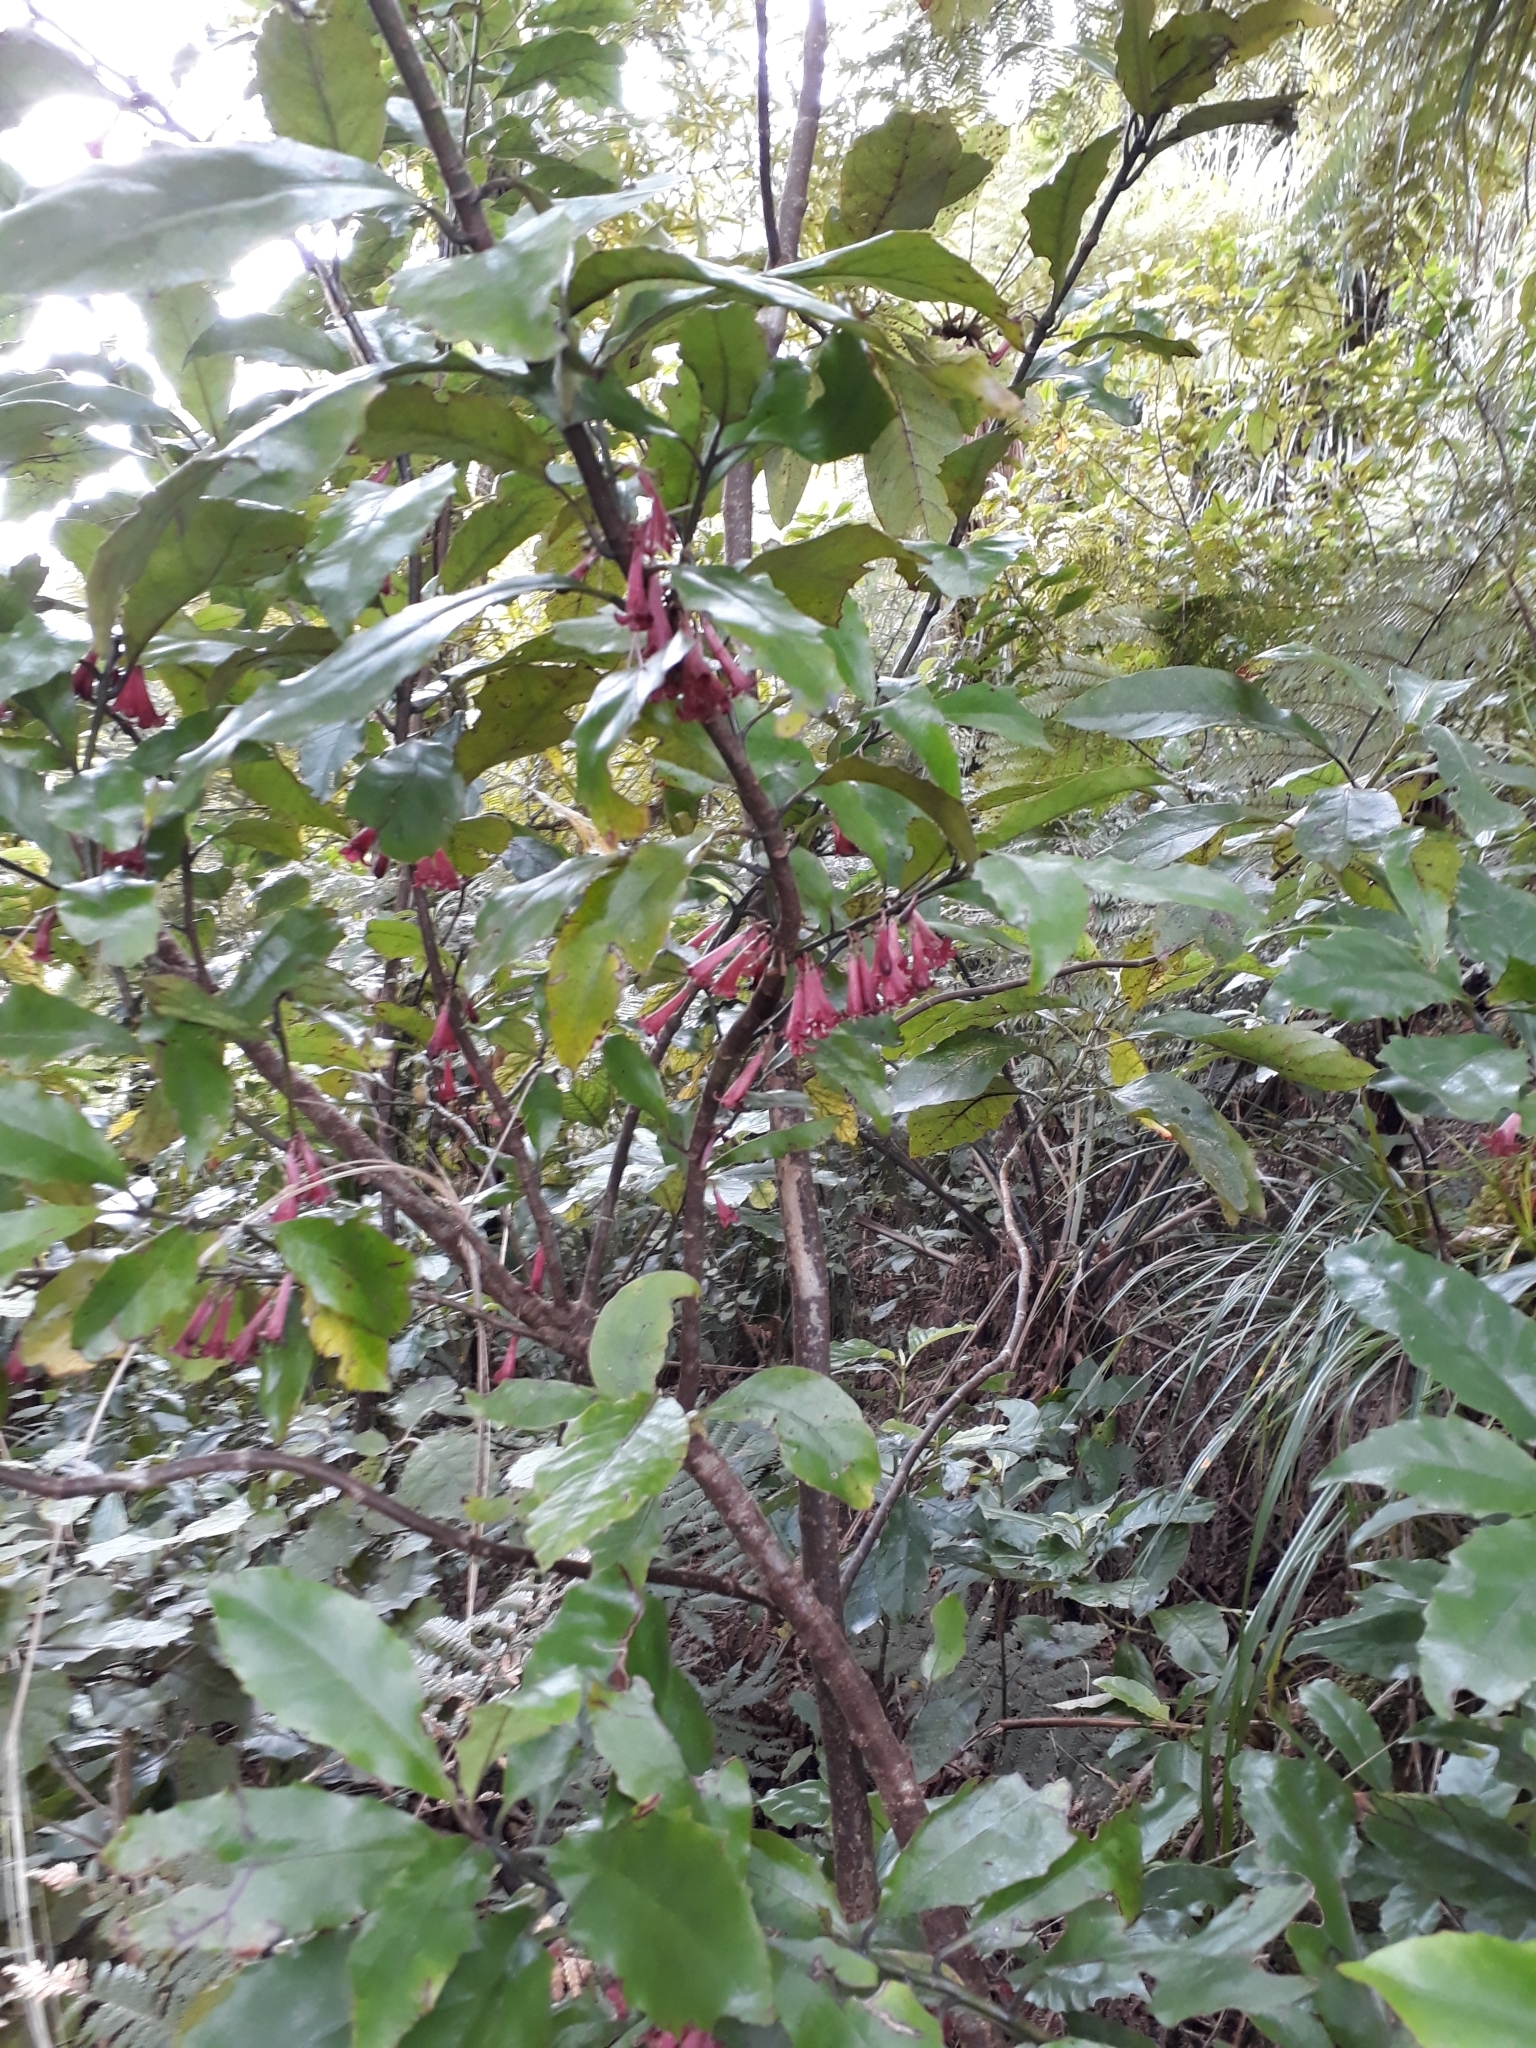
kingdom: Plantae
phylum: Tracheophyta
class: Magnoliopsida
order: Asterales
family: Alseuosmiaceae
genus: Alseuosmia
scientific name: Alseuosmia macrophylla
